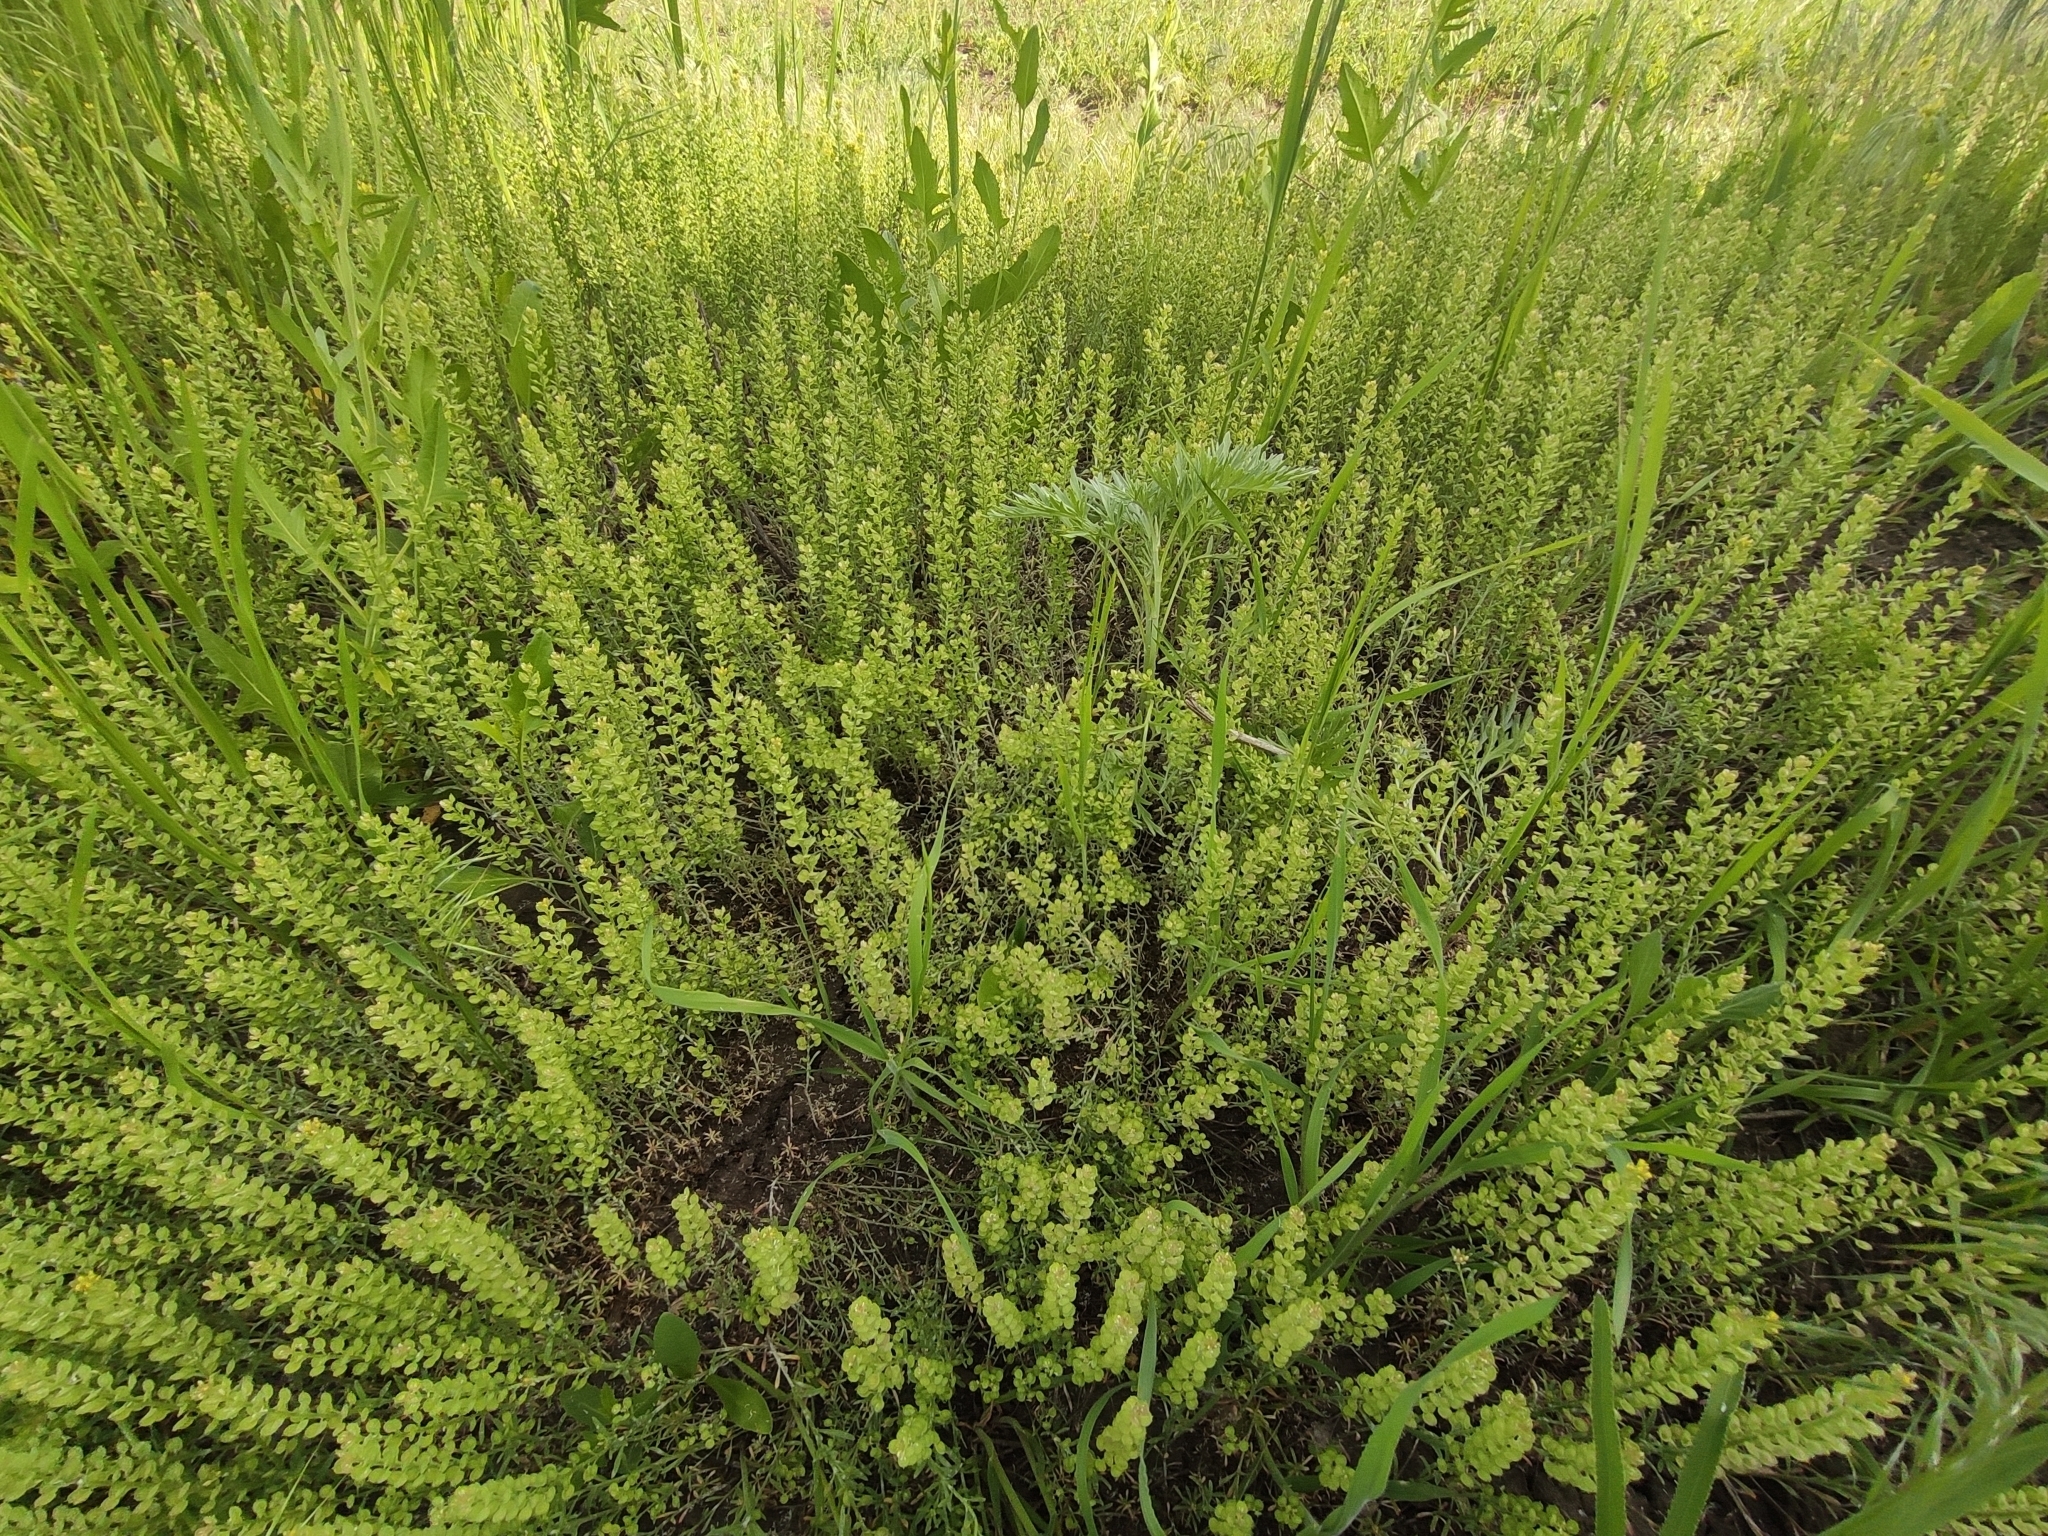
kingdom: Plantae
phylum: Tracheophyta
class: Magnoliopsida
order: Brassicales
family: Brassicaceae
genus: Alyssum
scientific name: Alyssum turkestanicum
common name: Desert alyssum
